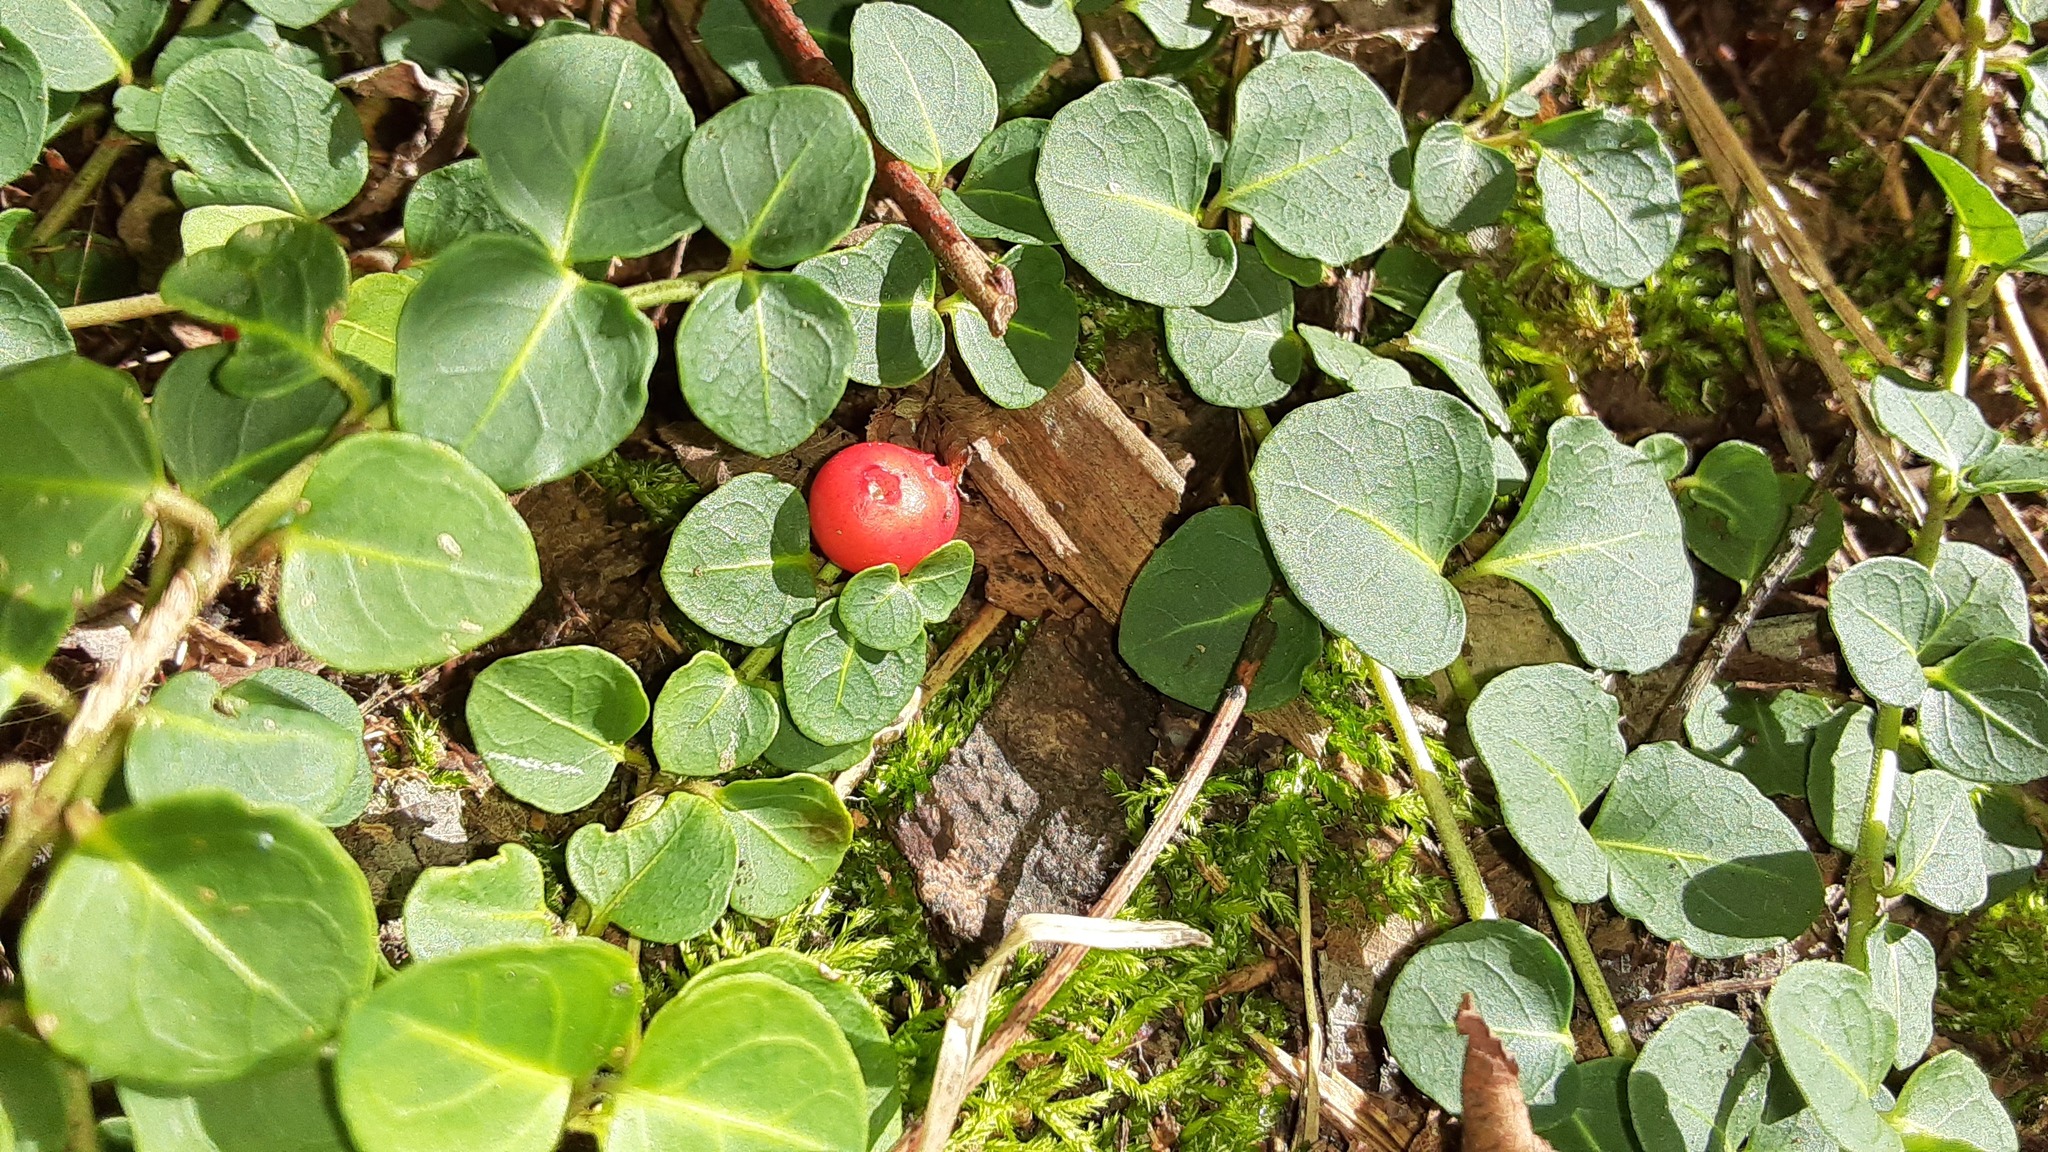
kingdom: Plantae
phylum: Tracheophyta
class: Magnoliopsida
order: Gentianales
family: Rubiaceae
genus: Mitchella
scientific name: Mitchella repens
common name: Partridge-berry
